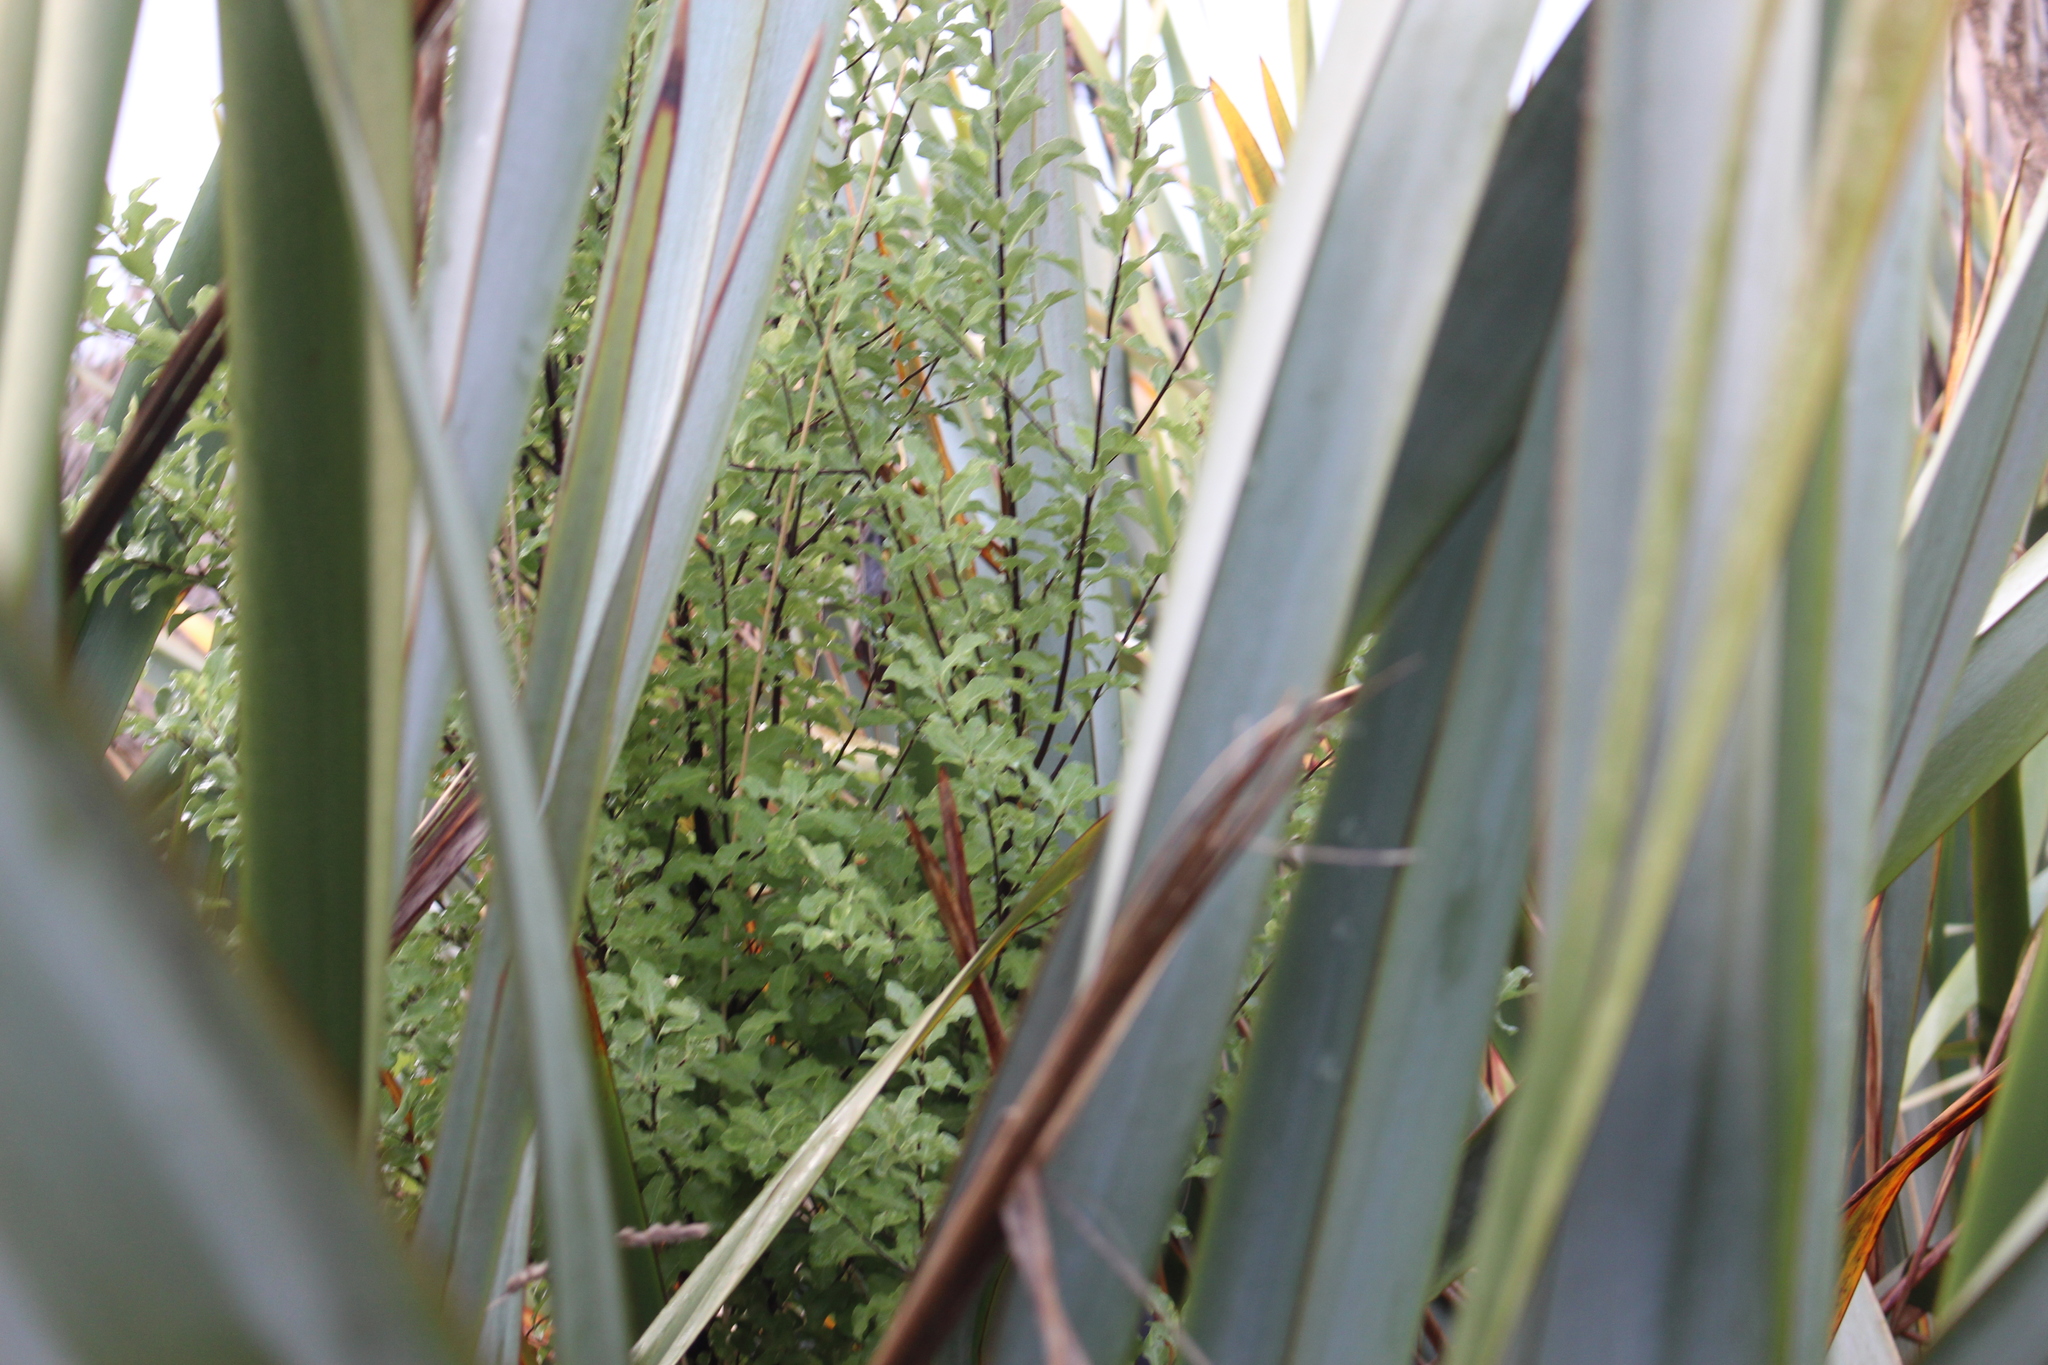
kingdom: Plantae
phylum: Tracheophyta
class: Magnoliopsida
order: Apiales
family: Pittosporaceae
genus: Pittosporum
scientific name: Pittosporum tenuifolium
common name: Kohuhu
